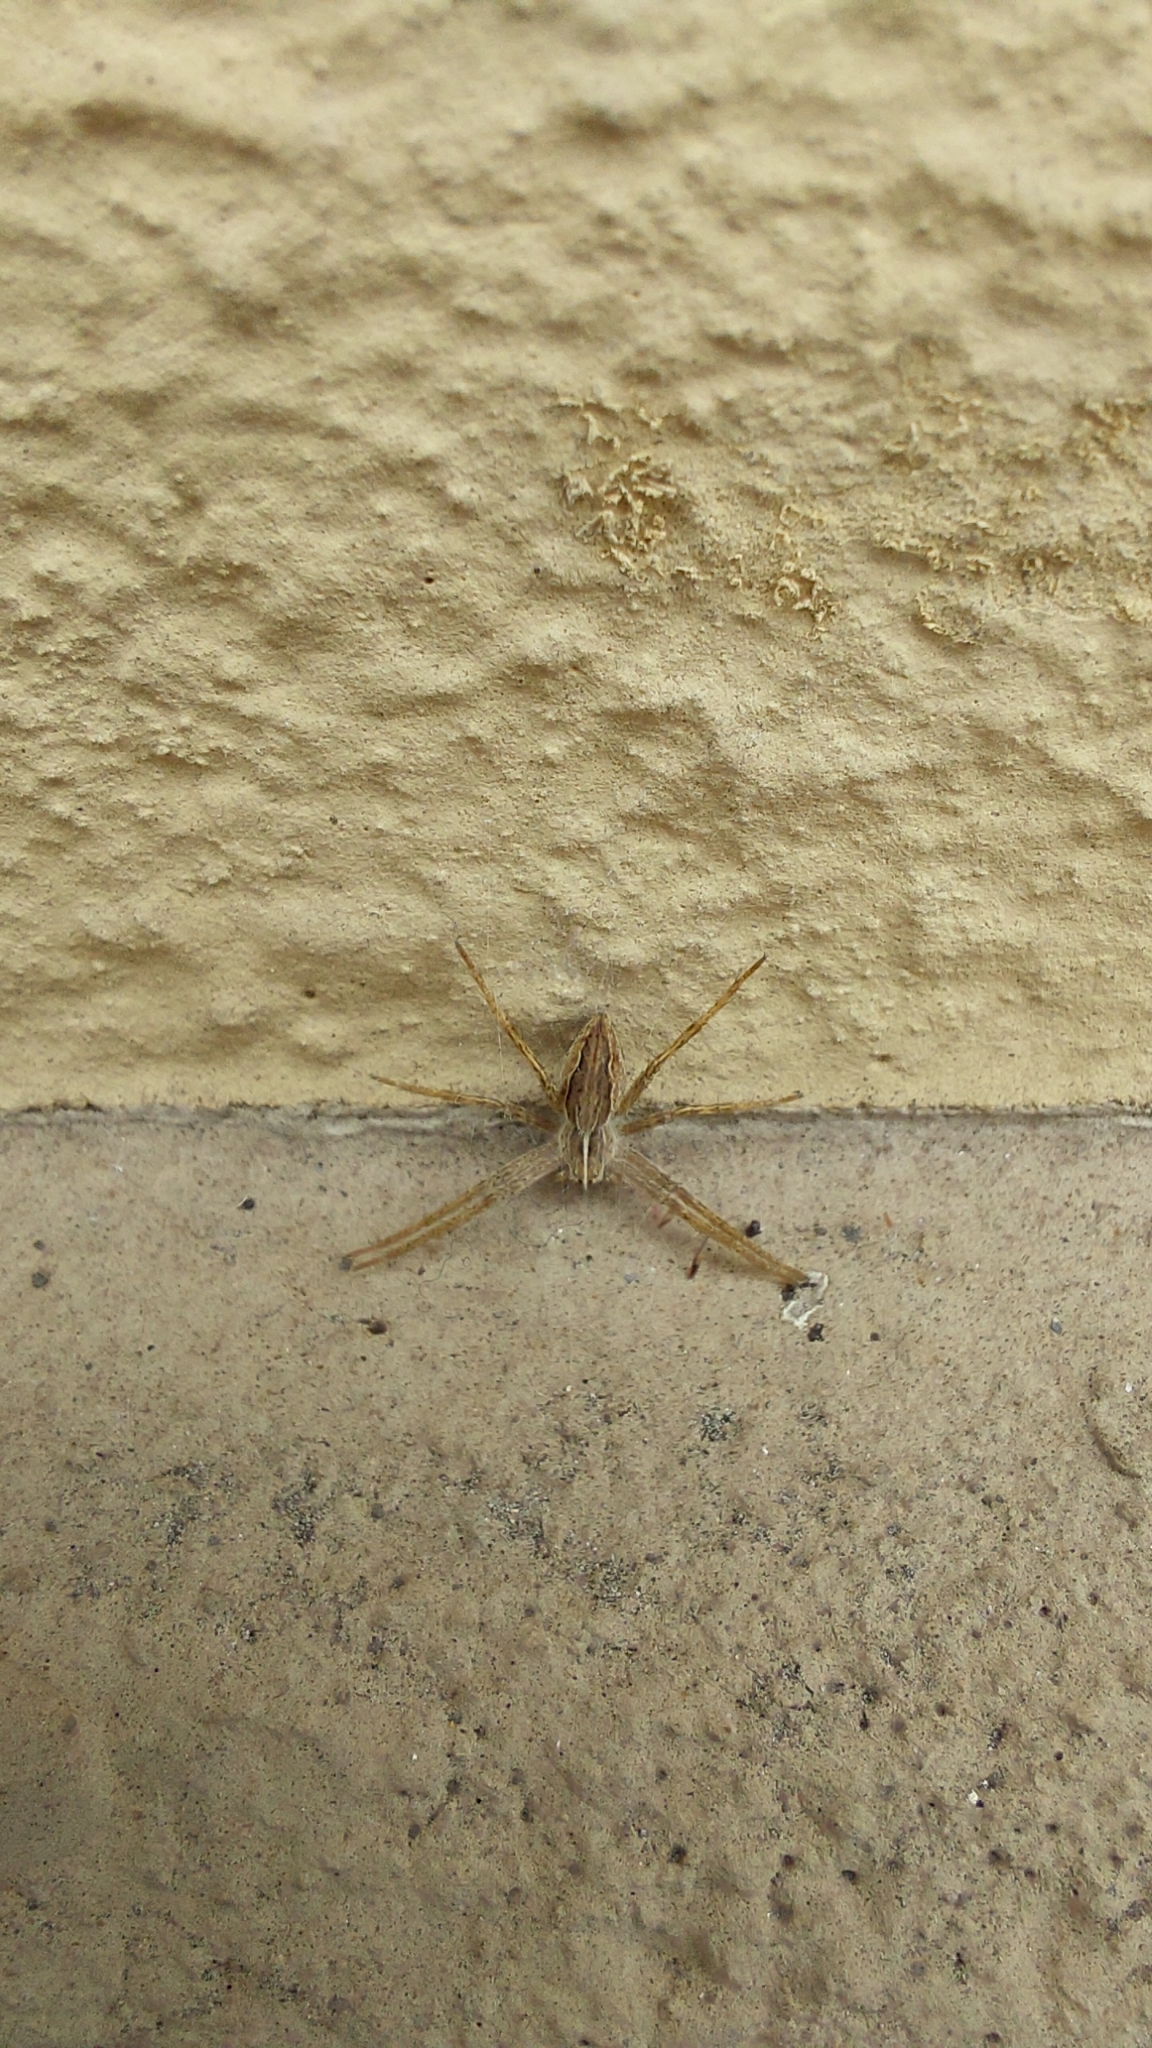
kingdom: Animalia
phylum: Arthropoda
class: Arachnida
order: Araneae
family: Pisauridae
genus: Pisaura
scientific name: Pisaura mirabilis
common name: Tent spider
